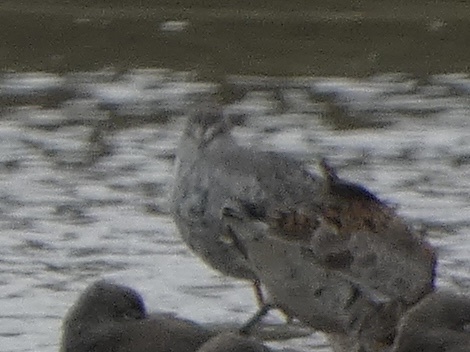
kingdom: Animalia
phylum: Chordata
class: Aves
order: Charadriiformes
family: Scolopacidae
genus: Tringa
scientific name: Tringa erythropus
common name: Spotted redshank
